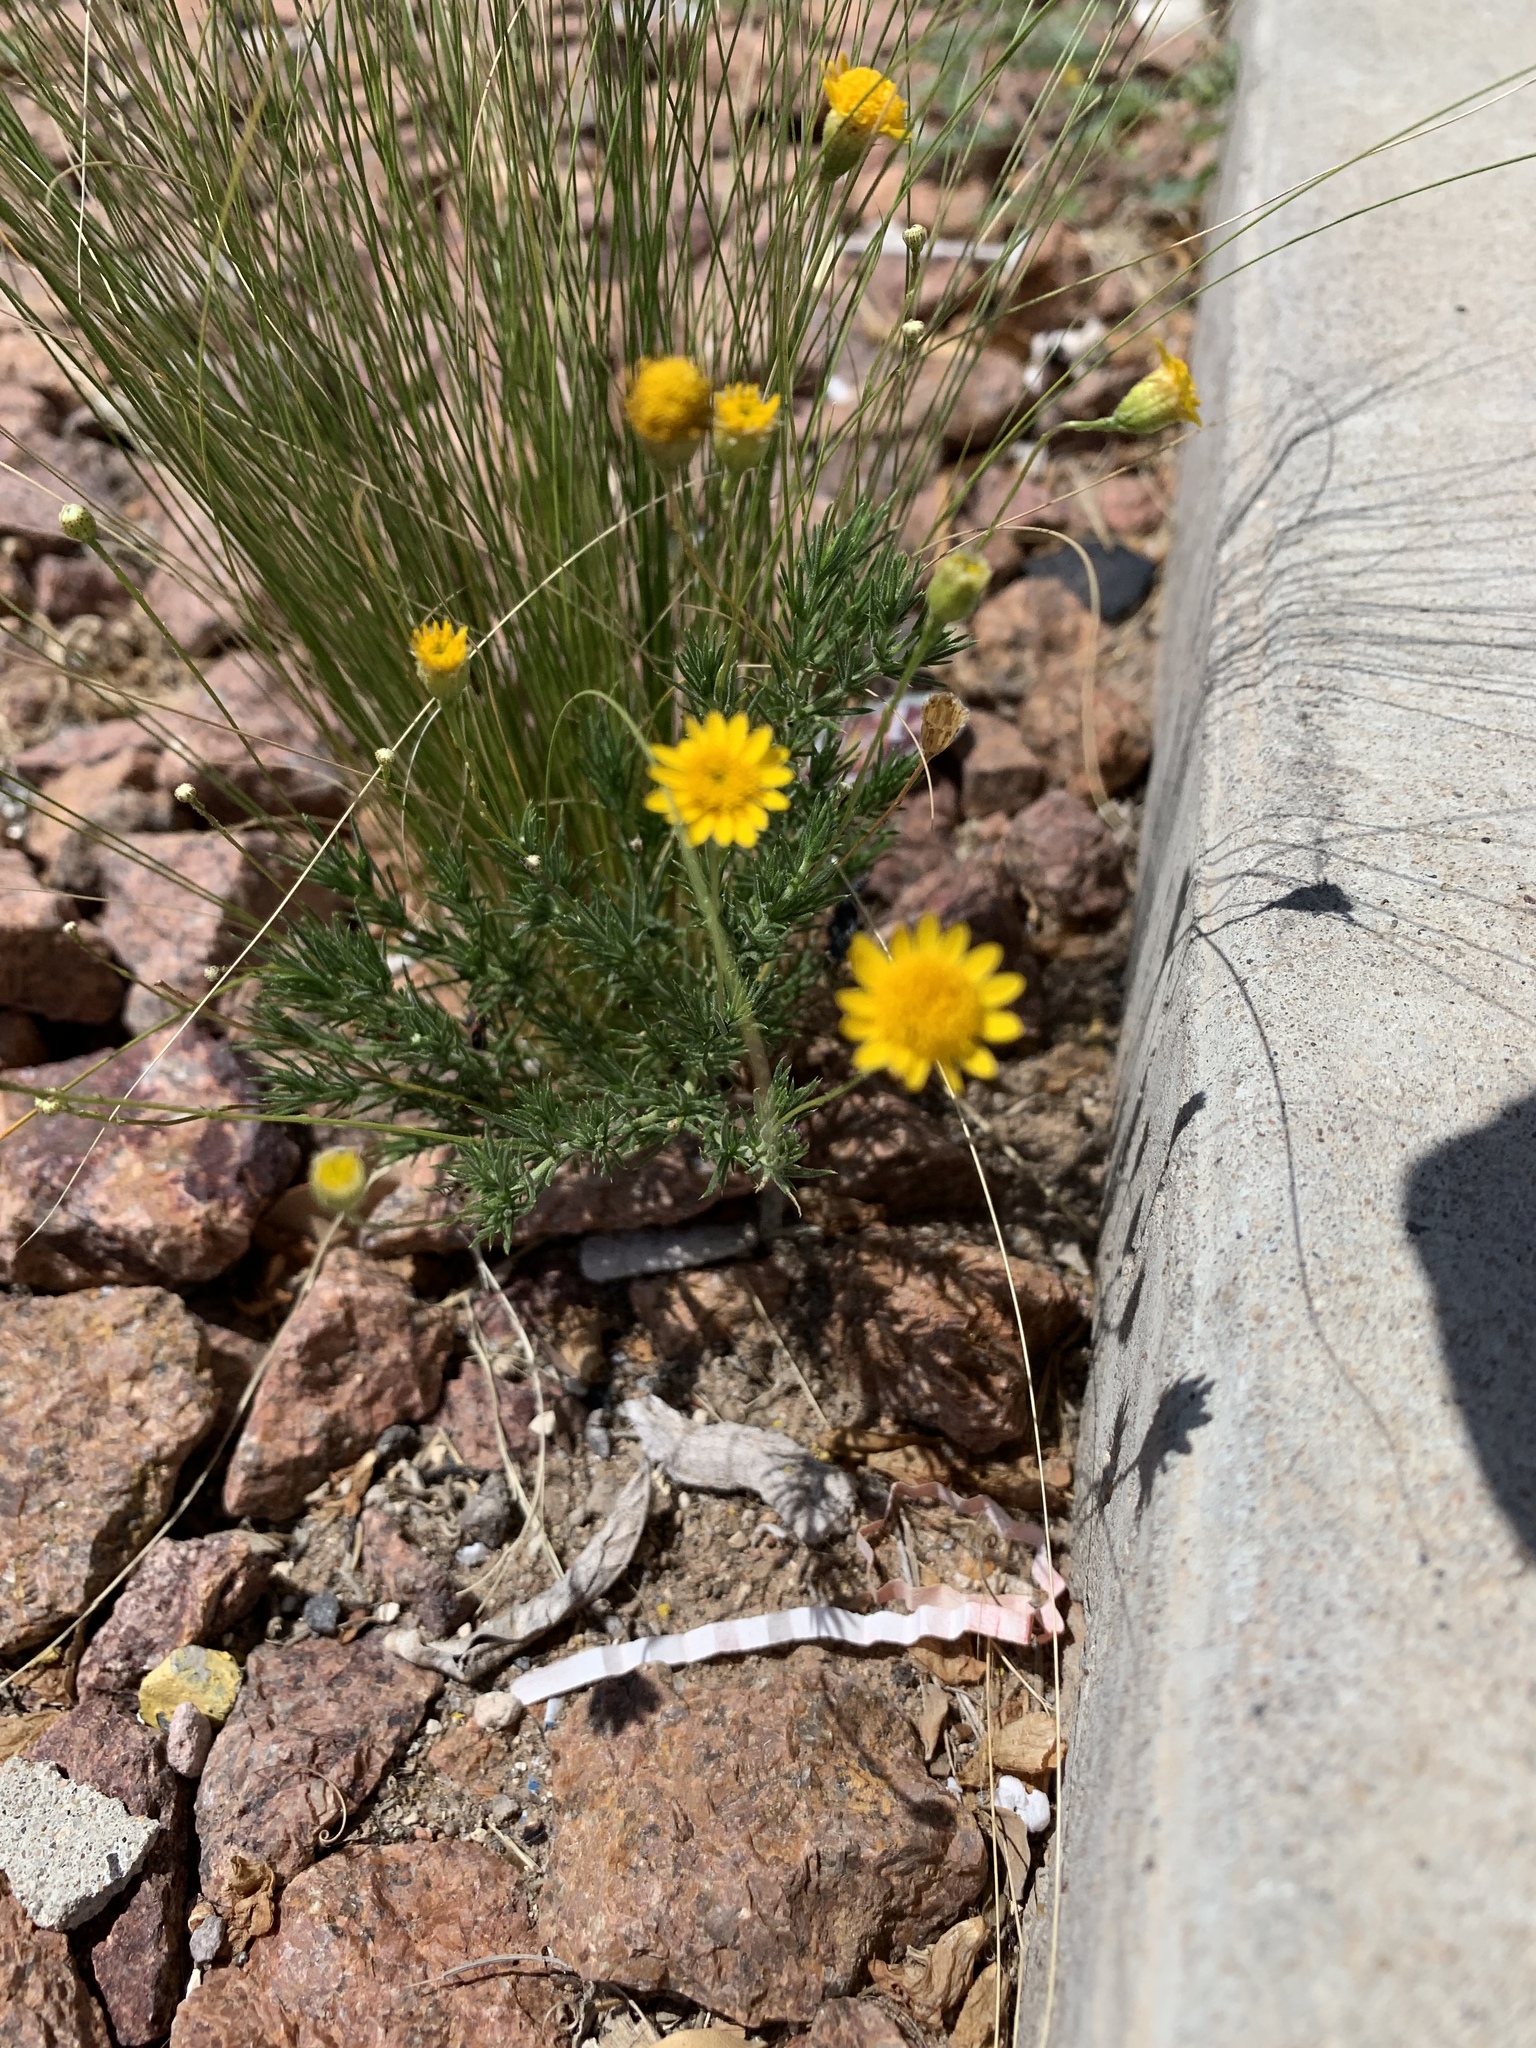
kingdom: Plantae
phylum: Tracheophyta
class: Magnoliopsida
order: Asterales
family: Asteraceae
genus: Thymophylla
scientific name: Thymophylla pentachaeta
